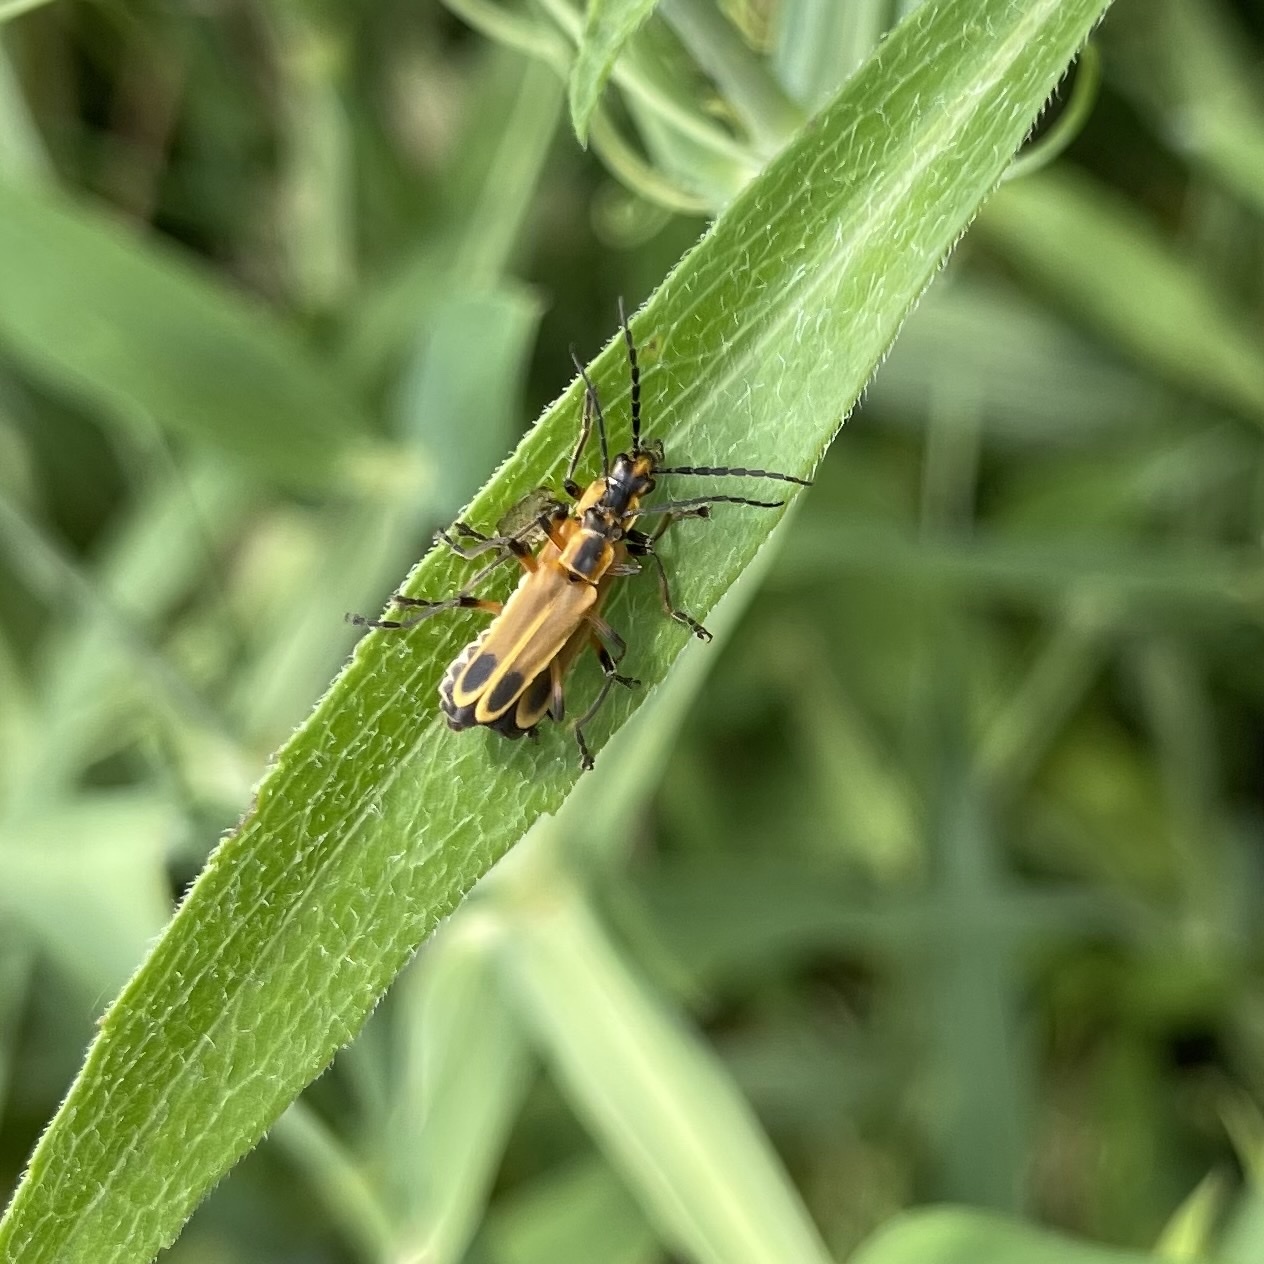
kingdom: Animalia
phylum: Arthropoda
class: Insecta
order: Coleoptera
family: Cantharidae
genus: Chauliognathus
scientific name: Chauliognathus marginatus
